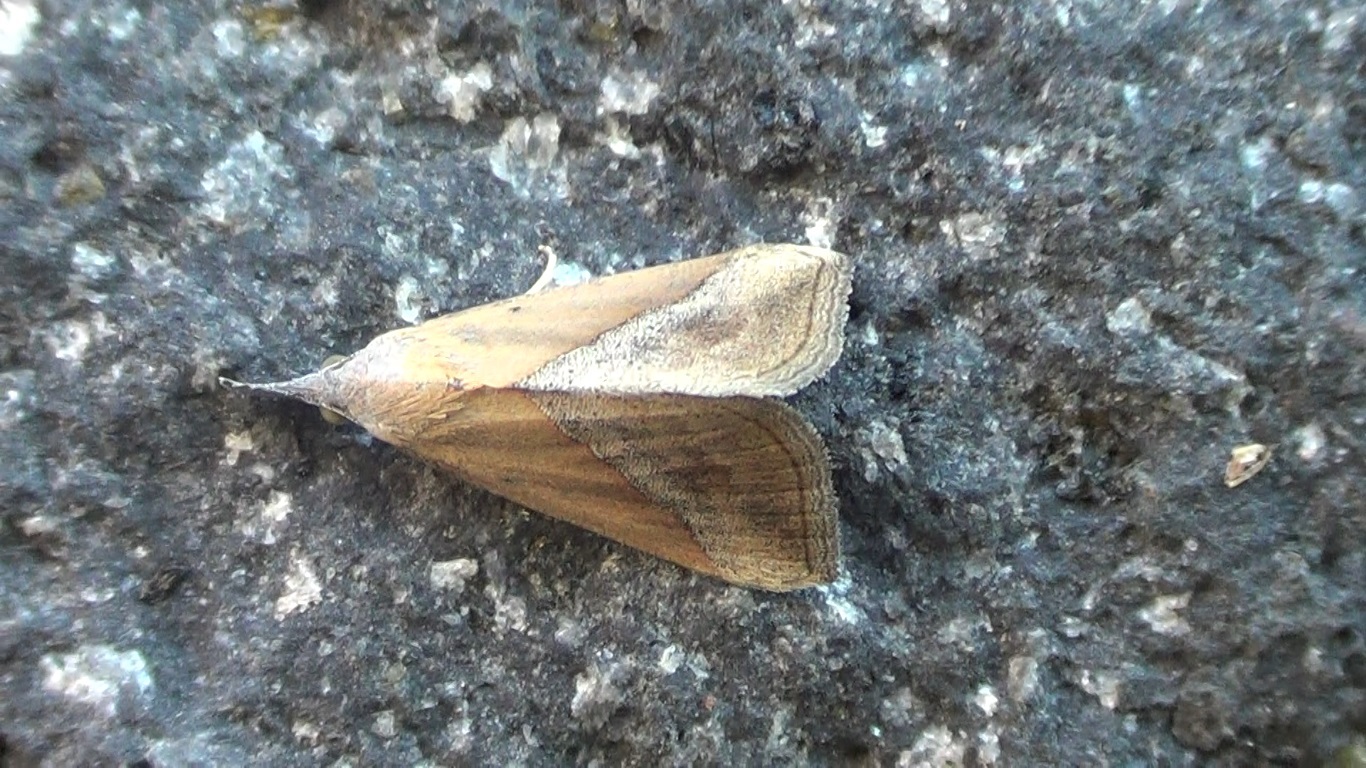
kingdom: Animalia
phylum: Arthropoda
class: Insecta
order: Lepidoptera
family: Erebidae
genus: Hypena
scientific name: Hypena lividalis
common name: Chevron snout
